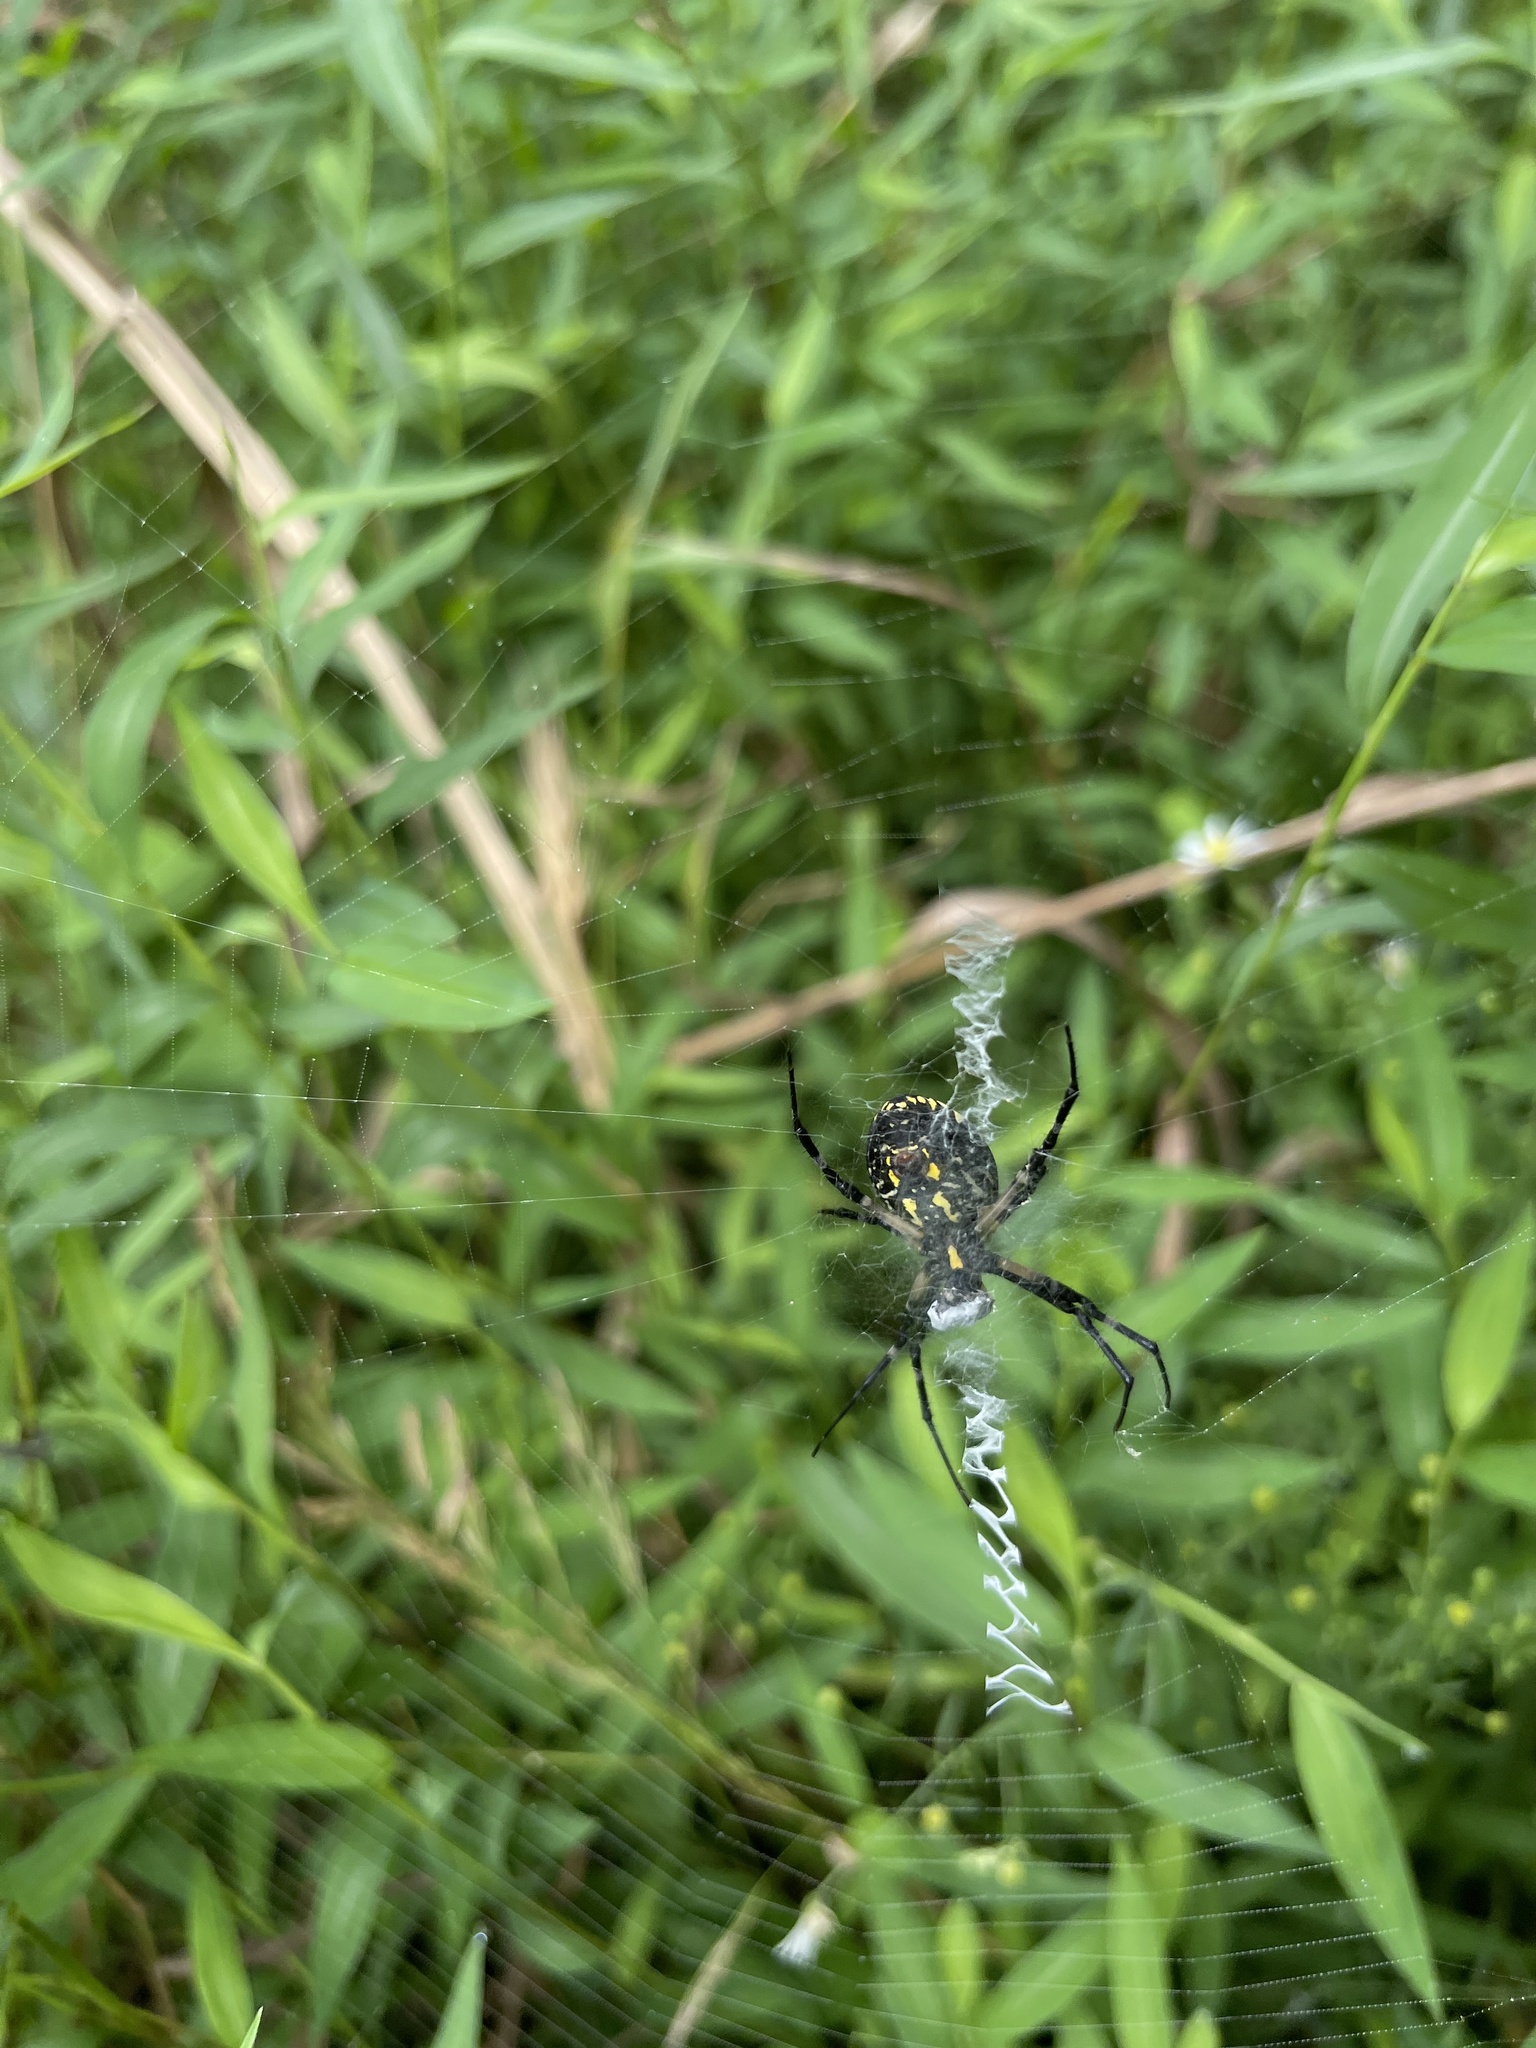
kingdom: Animalia
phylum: Arthropoda
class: Arachnida
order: Araneae
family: Araneidae
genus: Argiope
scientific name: Argiope aurantia
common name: Orb weavers
